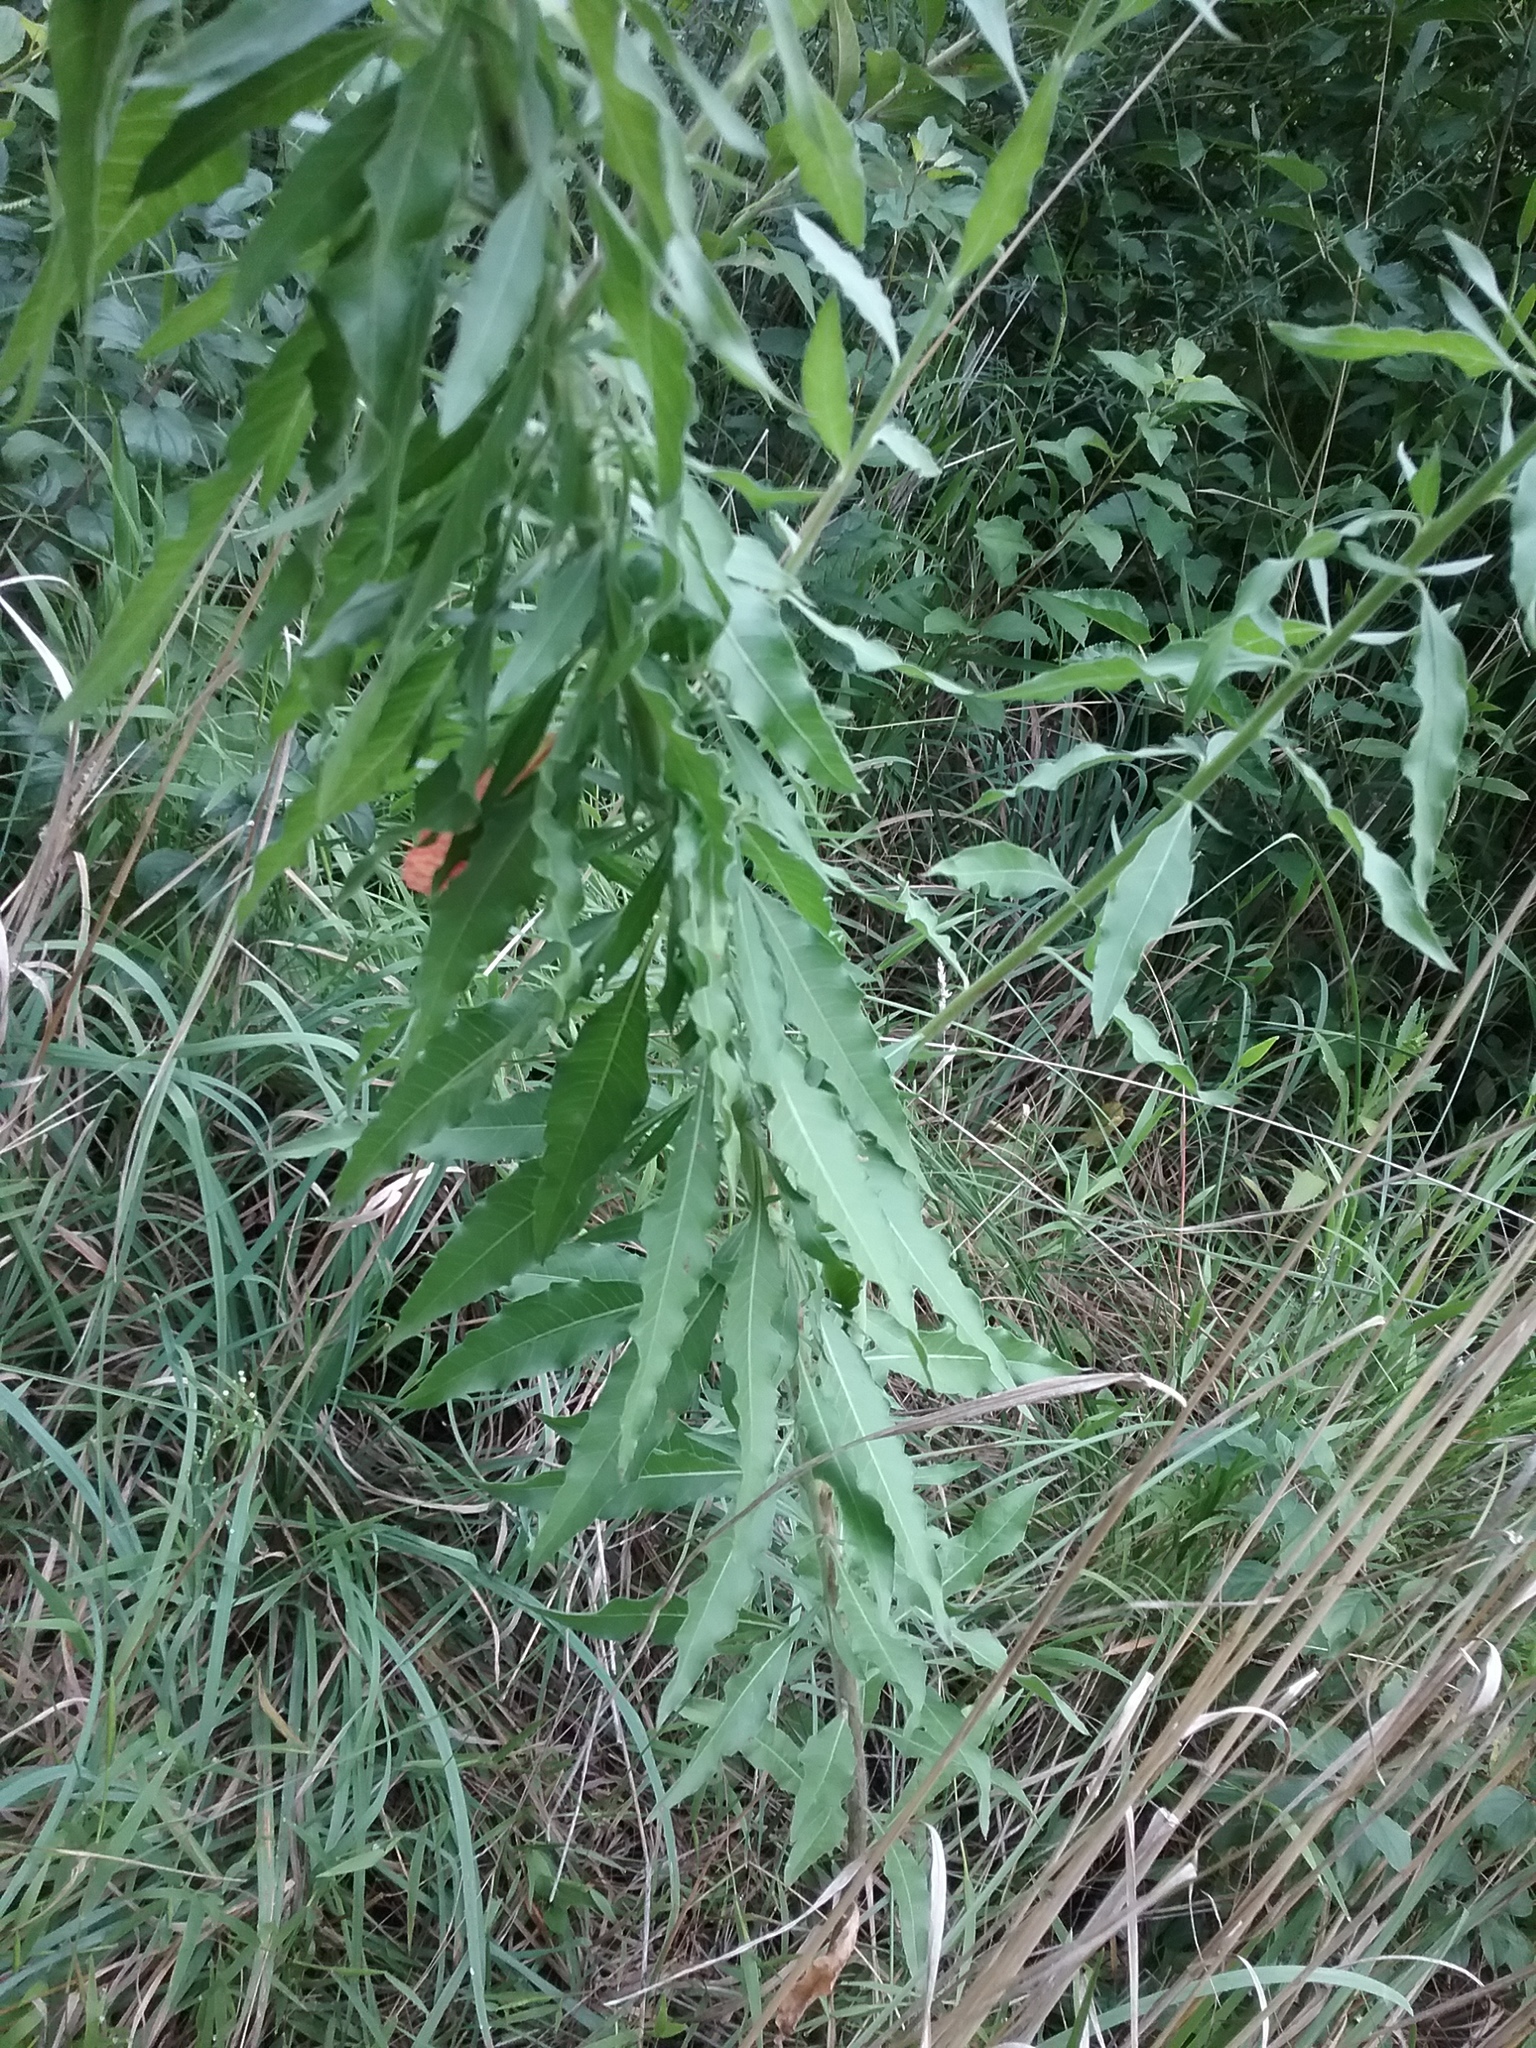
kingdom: Plantae
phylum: Tracheophyta
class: Magnoliopsida
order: Myrtales
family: Onagraceae
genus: Oenothera
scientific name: Oenothera gaura
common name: Biennial beeblossom
